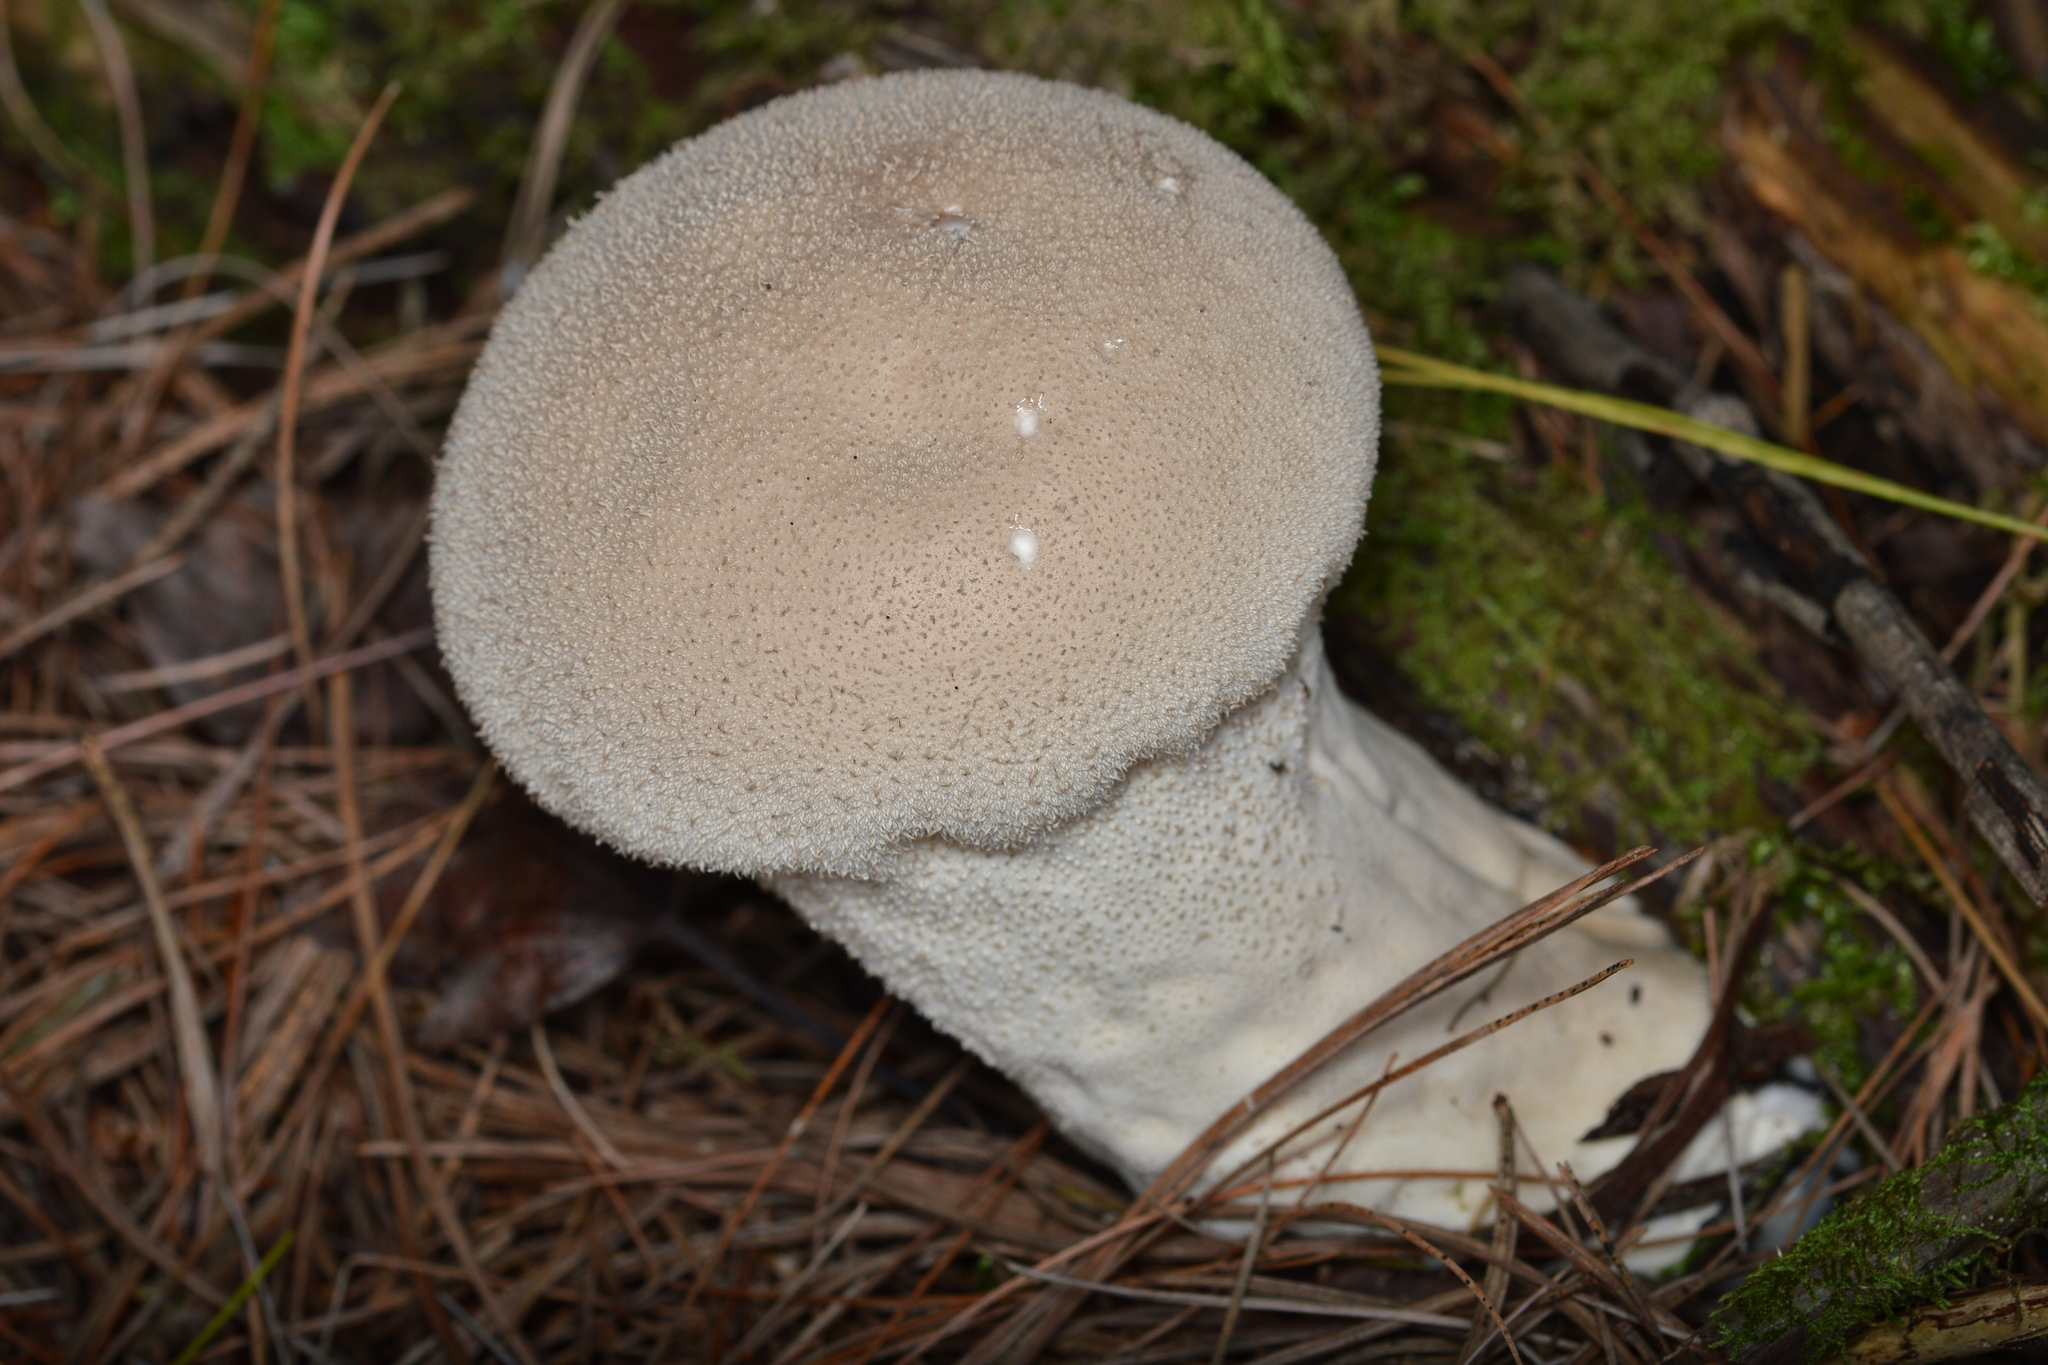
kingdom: Fungi
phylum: Basidiomycota
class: Agaricomycetes
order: Agaricales
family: Lycoperdaceae
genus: Lycoperdon
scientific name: Lycoperdon perlatum
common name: Common puffball
